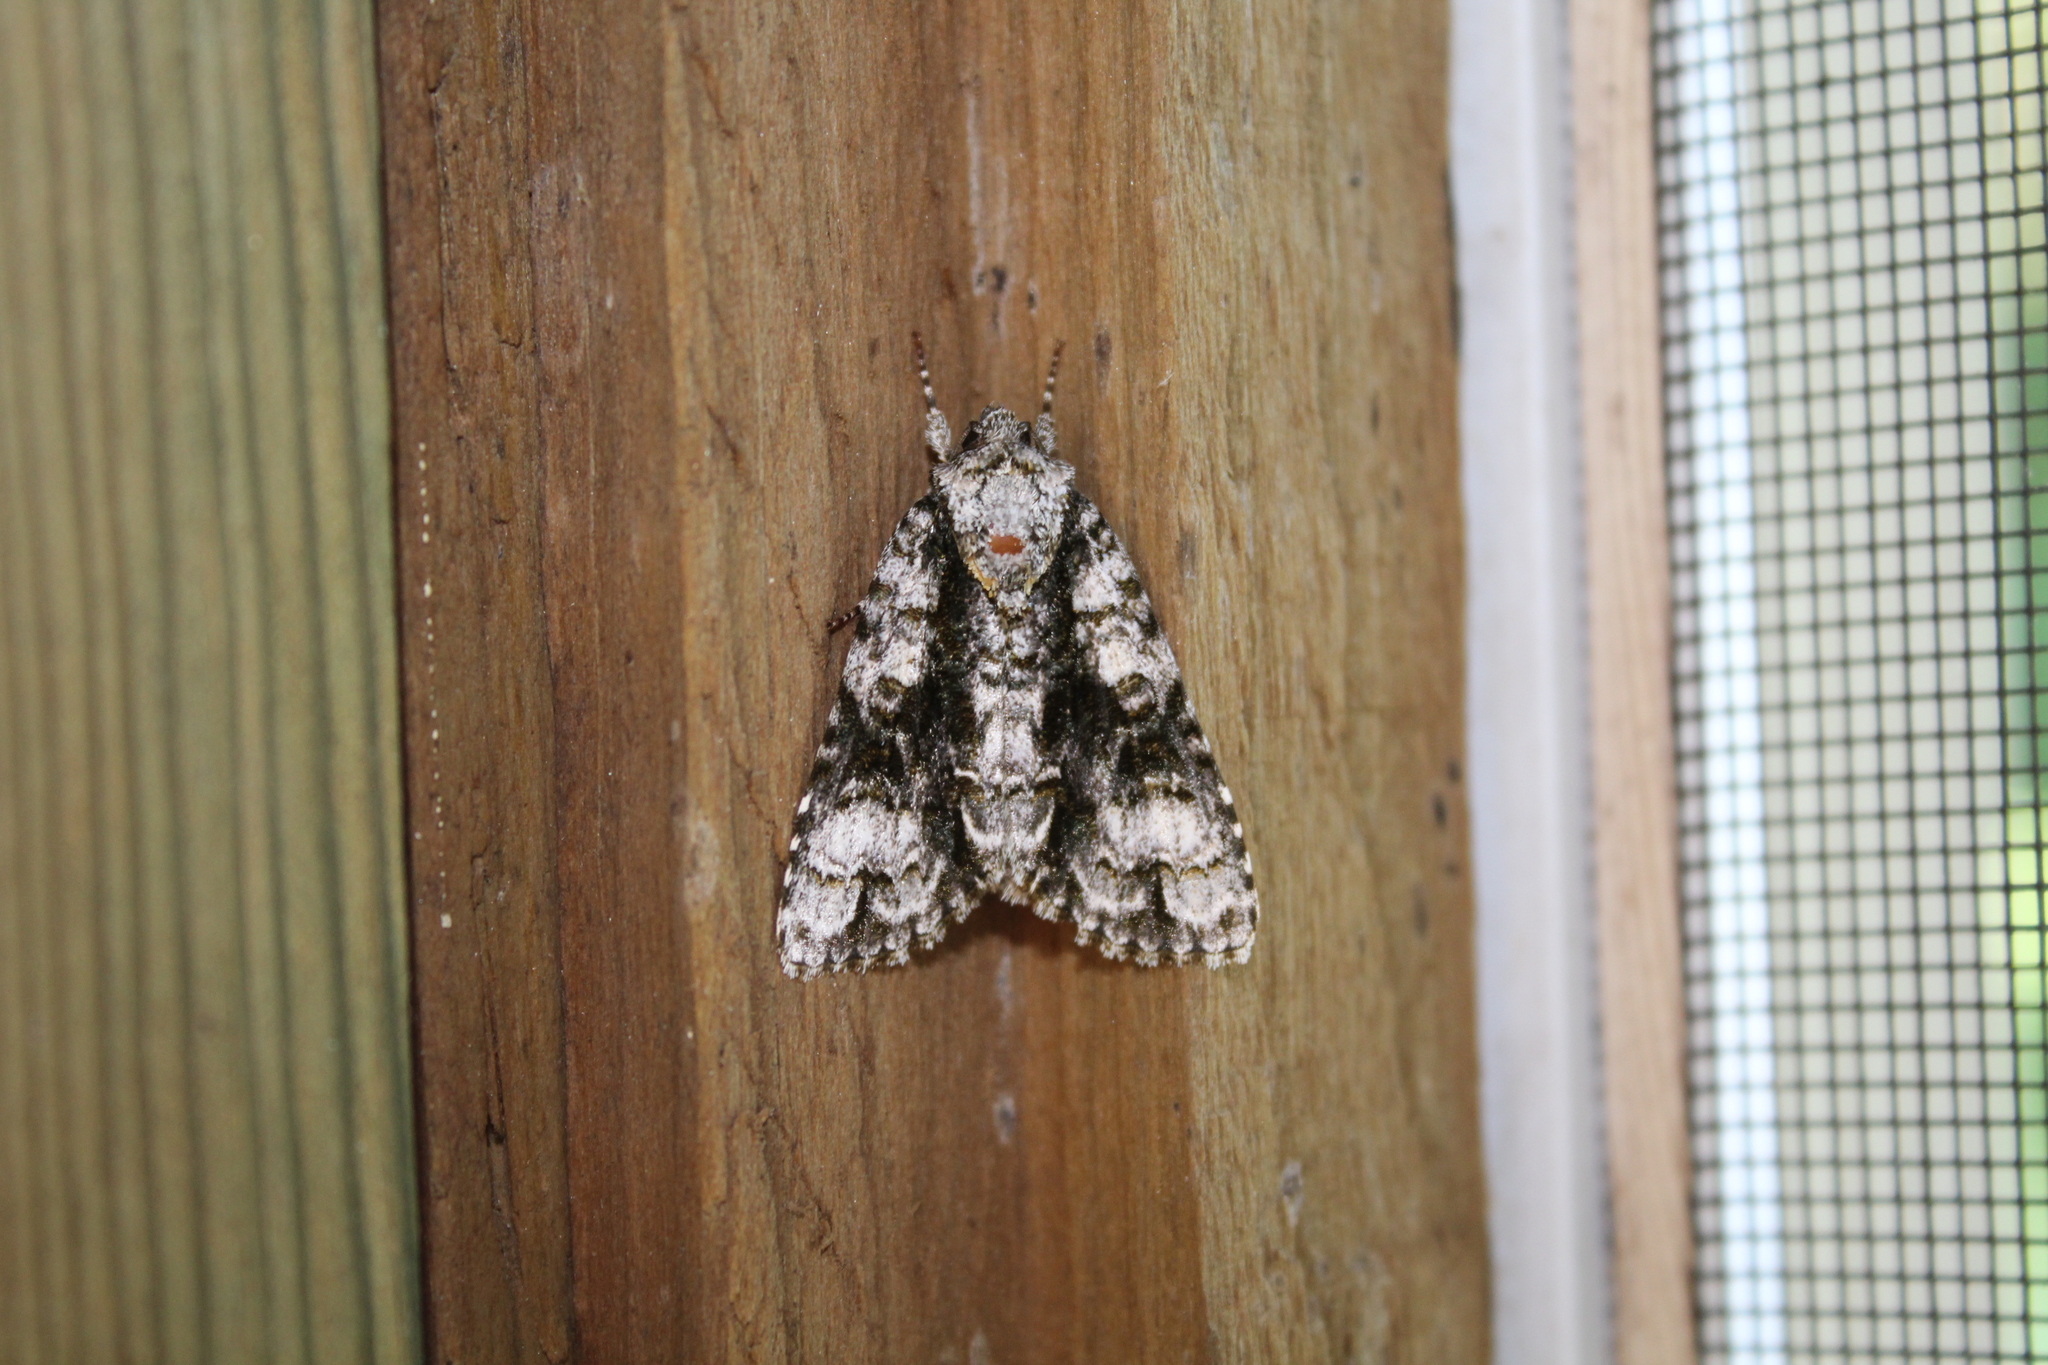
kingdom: Animalia
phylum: Arthropoda
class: Insecta
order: Lepidoptera
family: Noctuidae
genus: Acronicta
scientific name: Acronicta superans
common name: Splendid dagger
